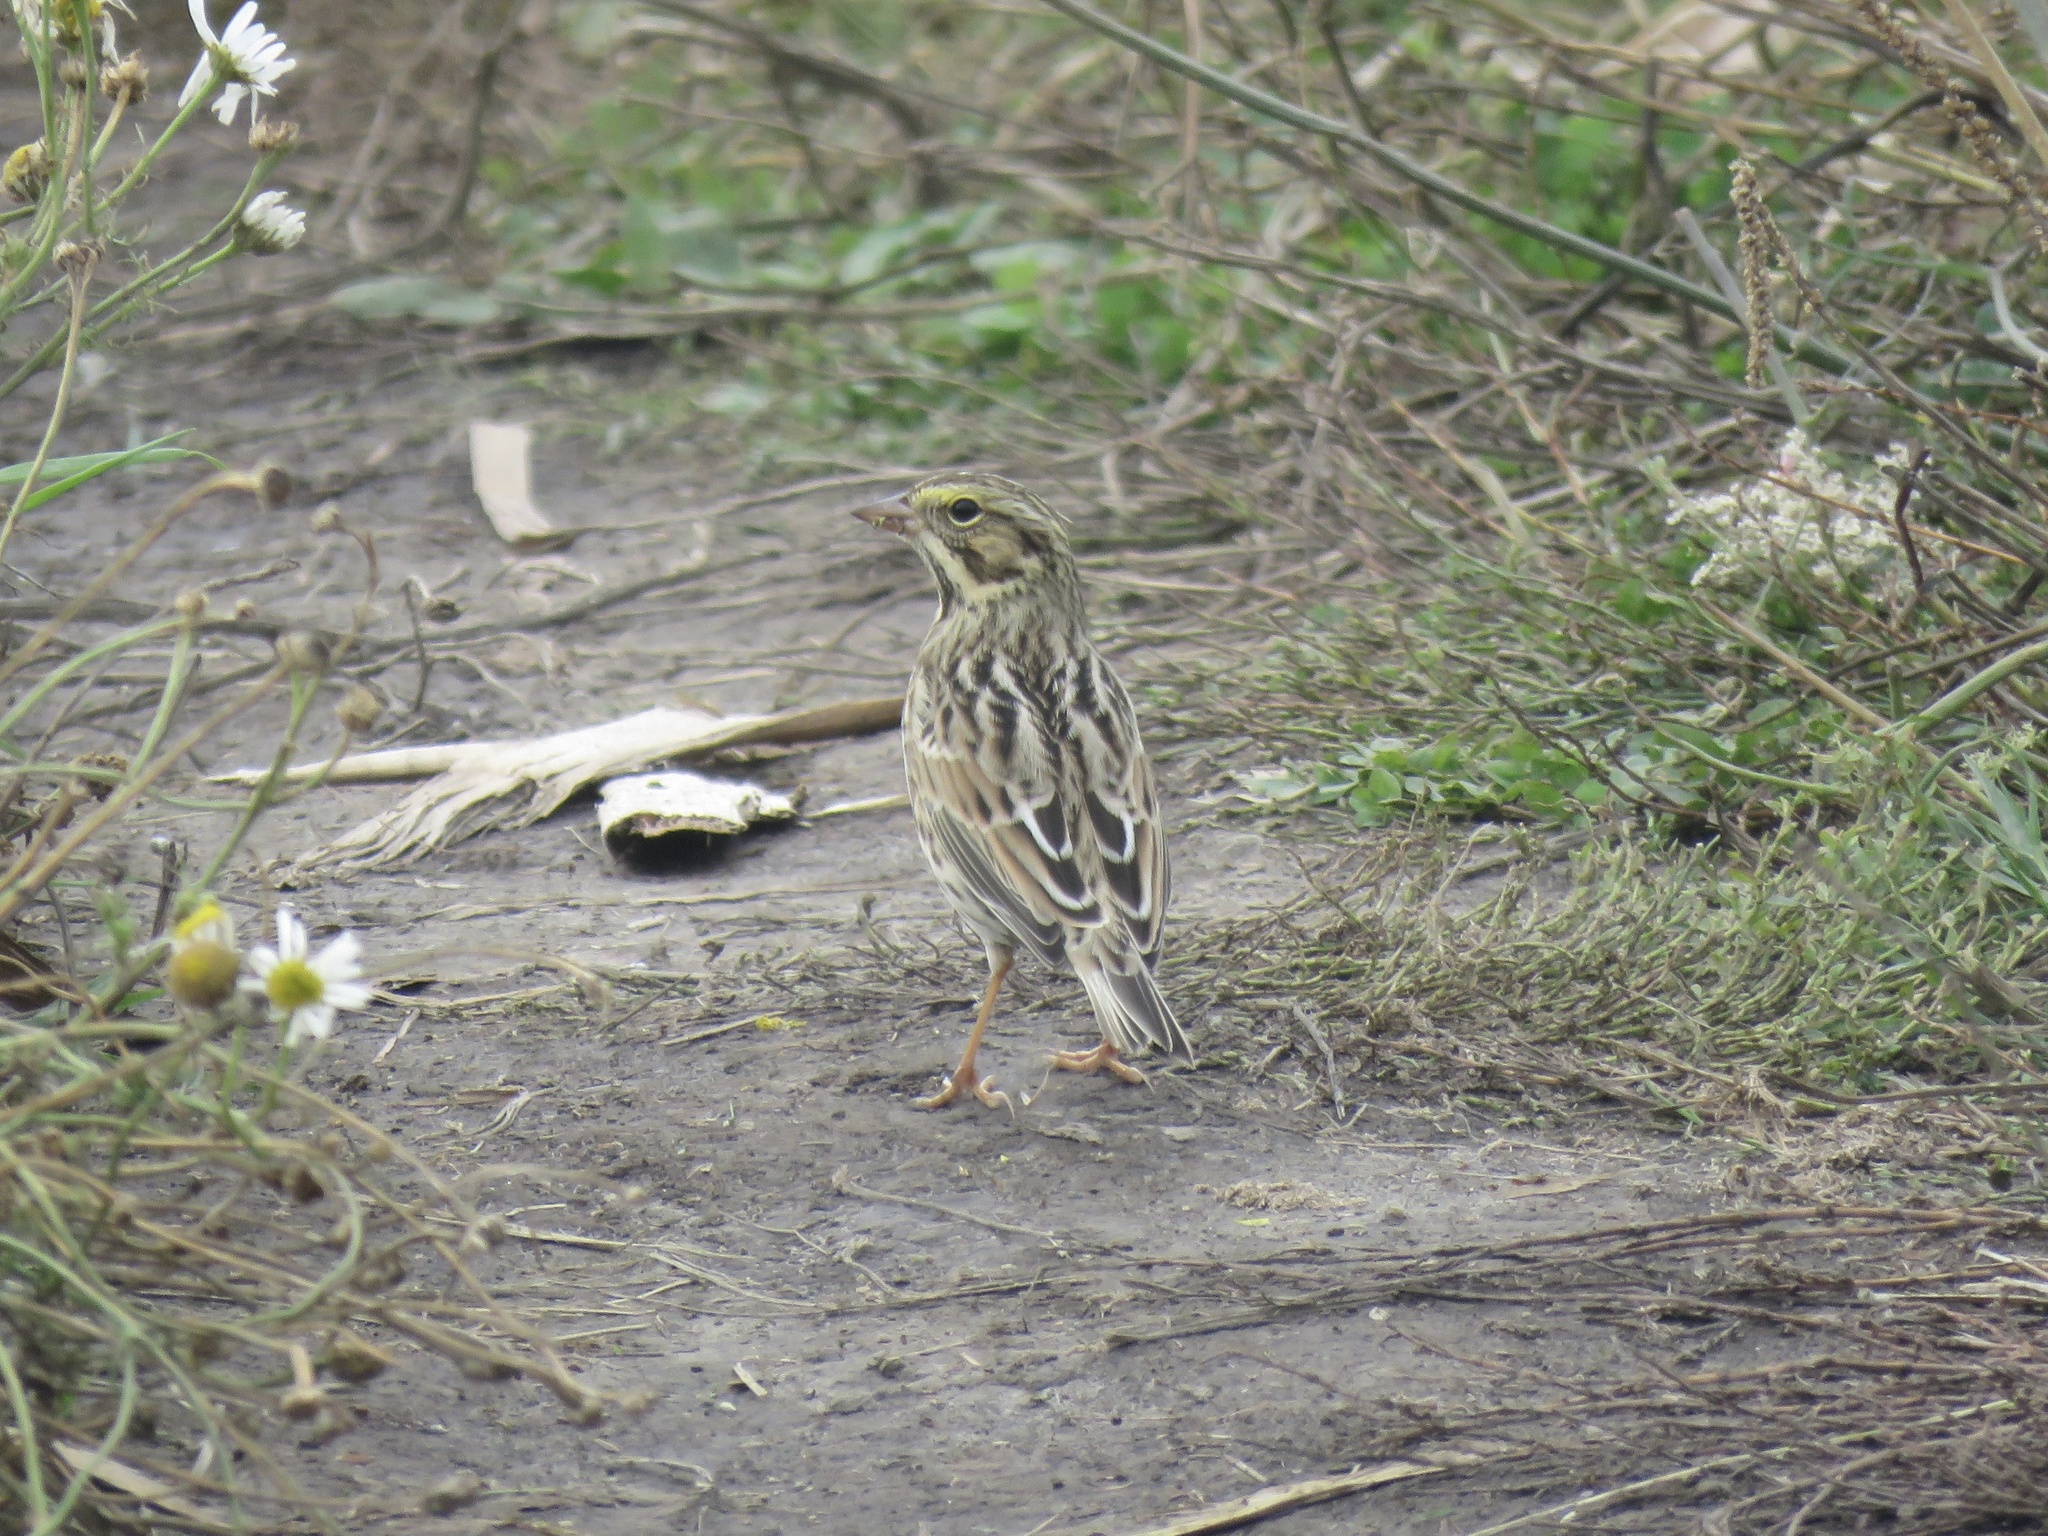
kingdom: Animalia
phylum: Chordata
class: Aves
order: Passeriformes
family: Passerellidae
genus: Passerculus
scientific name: Passerculus sandwichensis
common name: Savannah sparrow
